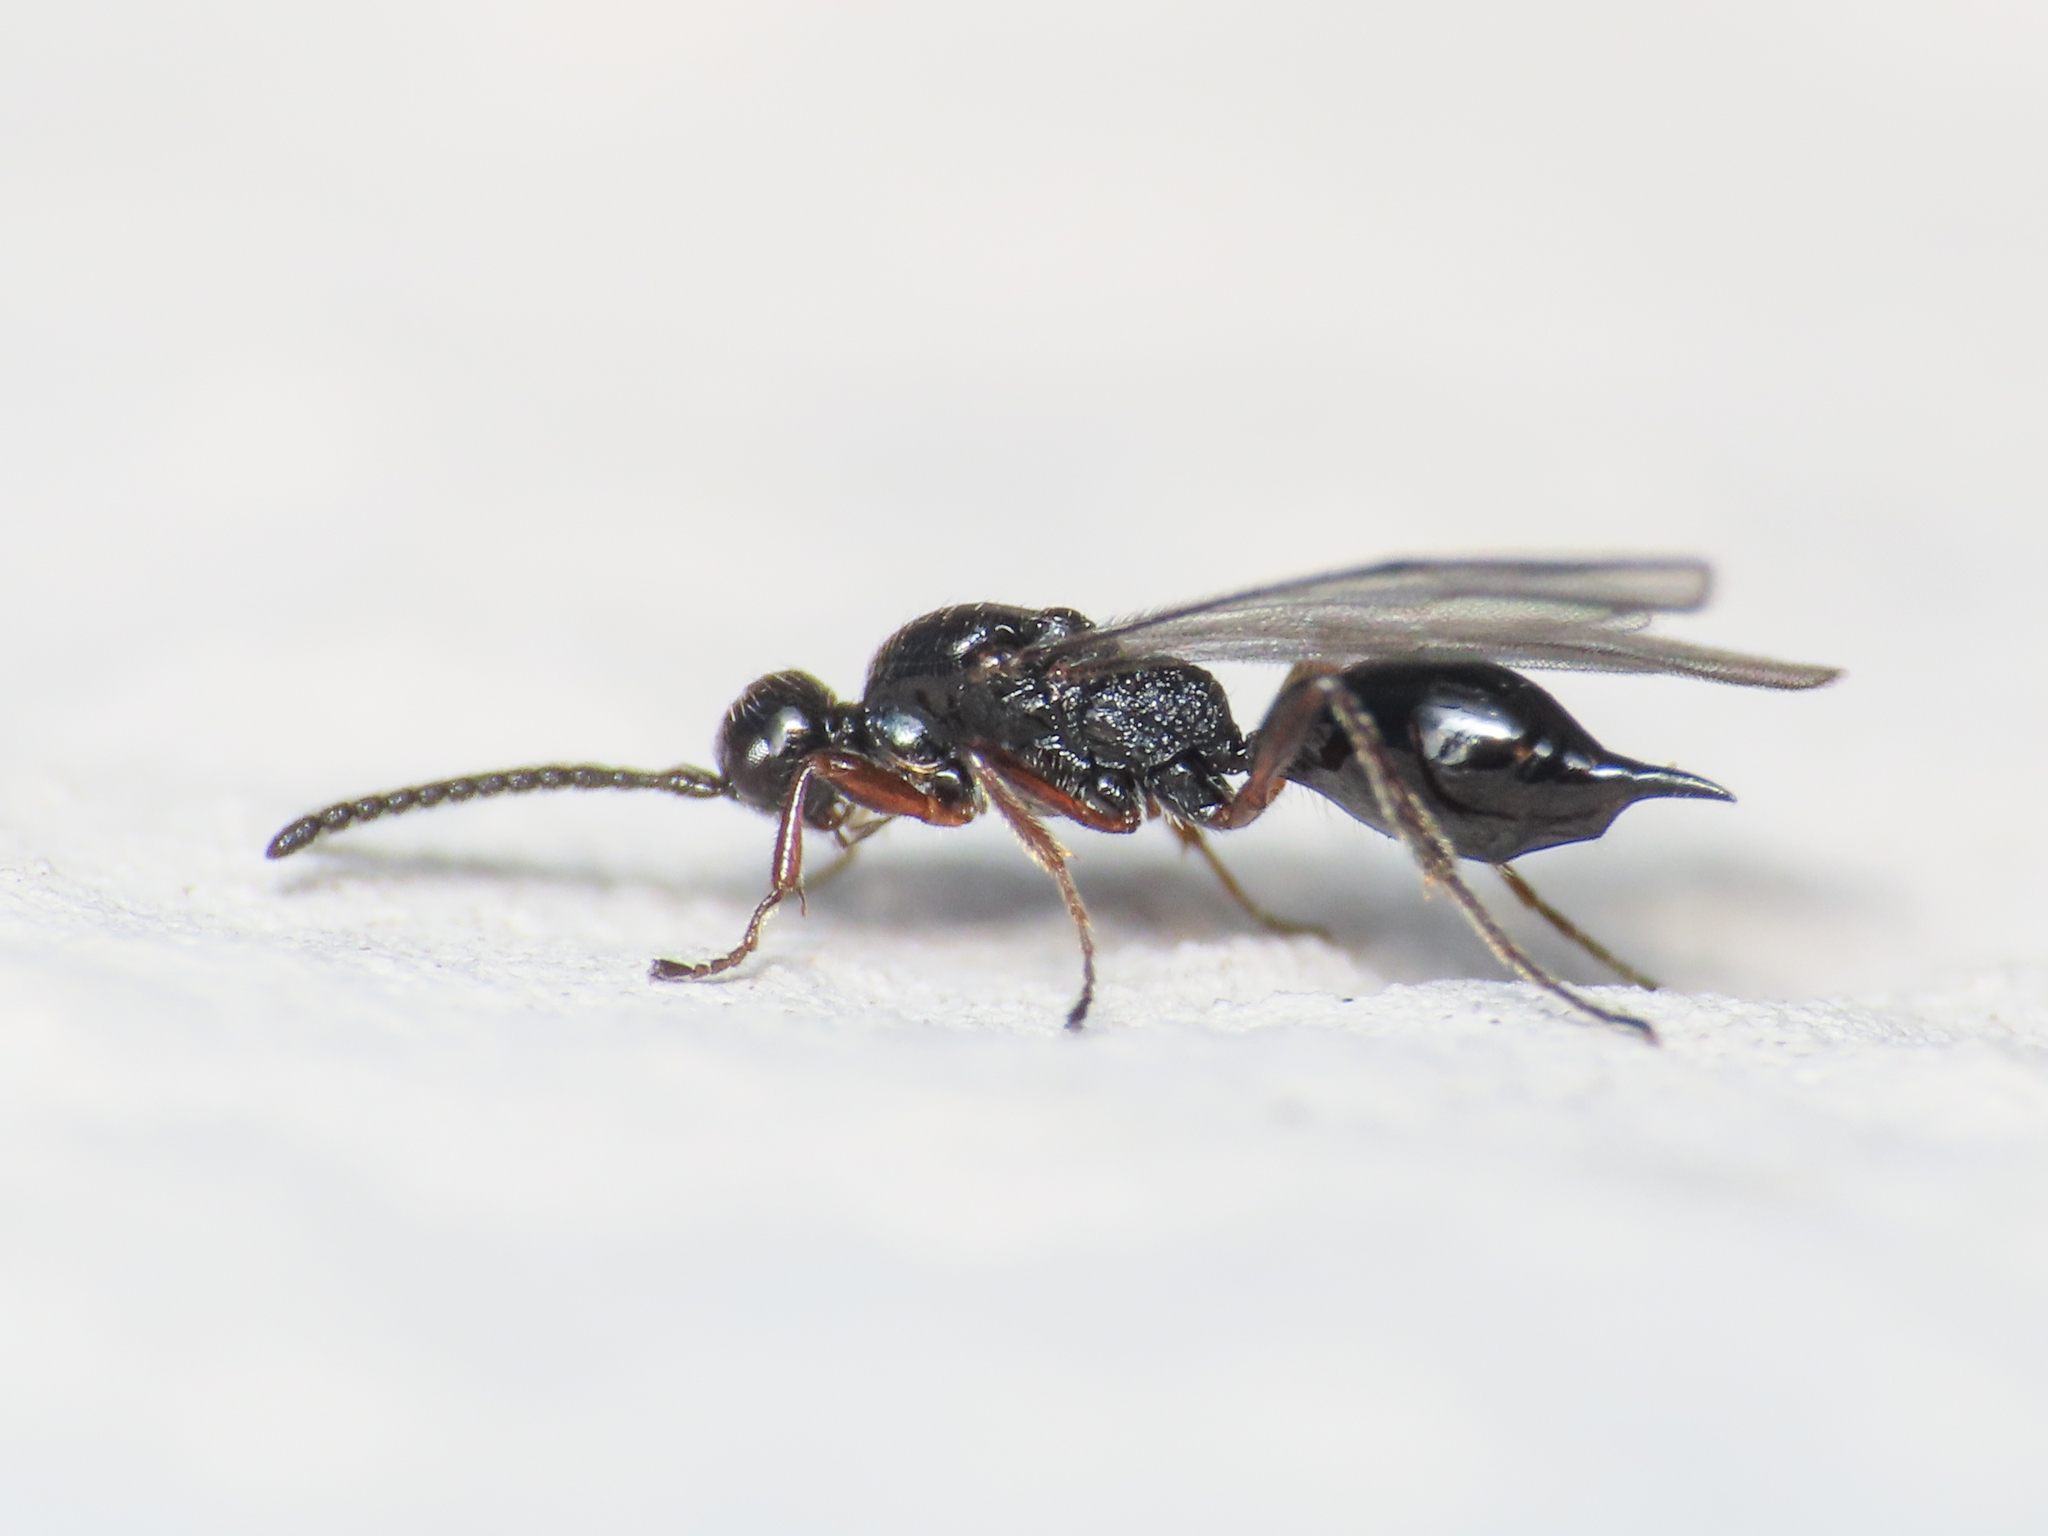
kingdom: Animalia
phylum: Arthropoda
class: Insecta
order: Hymenoptera
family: Proctotrupidae
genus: Exallonyx
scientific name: Exallonyx trifoveatus
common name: Wasp
